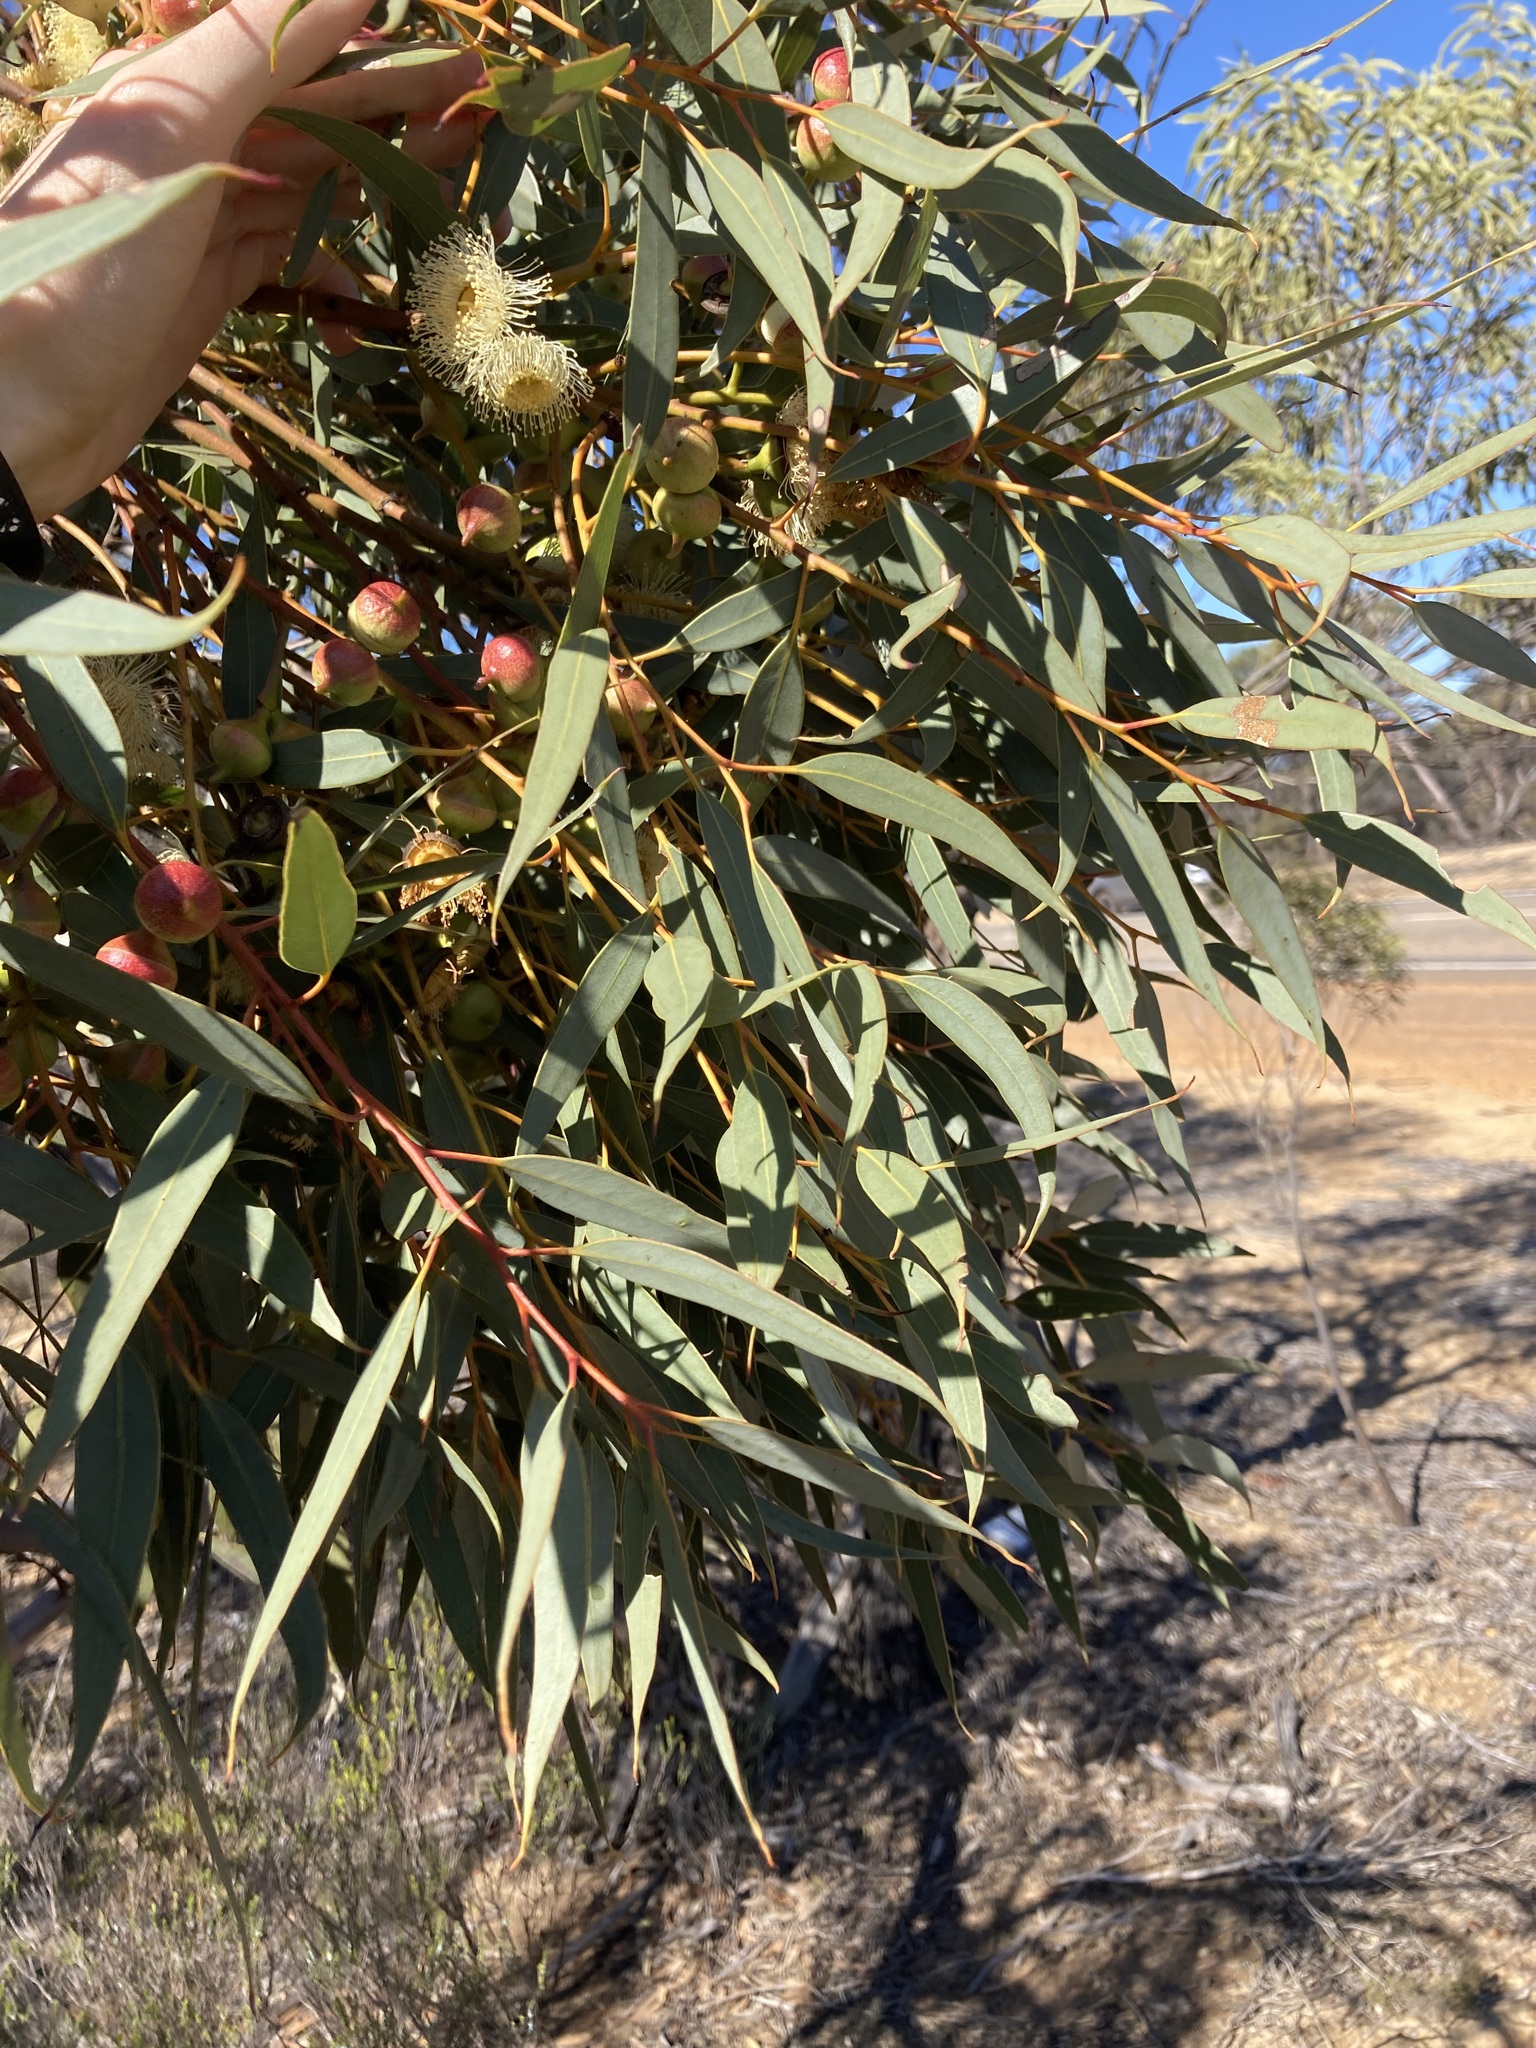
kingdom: Plantae
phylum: Tracheophyta
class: Magnoliopsida
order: Myrtales
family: Myrtaceae
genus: Eucalyptus
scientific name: Eucalyptus burracoppinensis
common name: Burracoppin mallee
